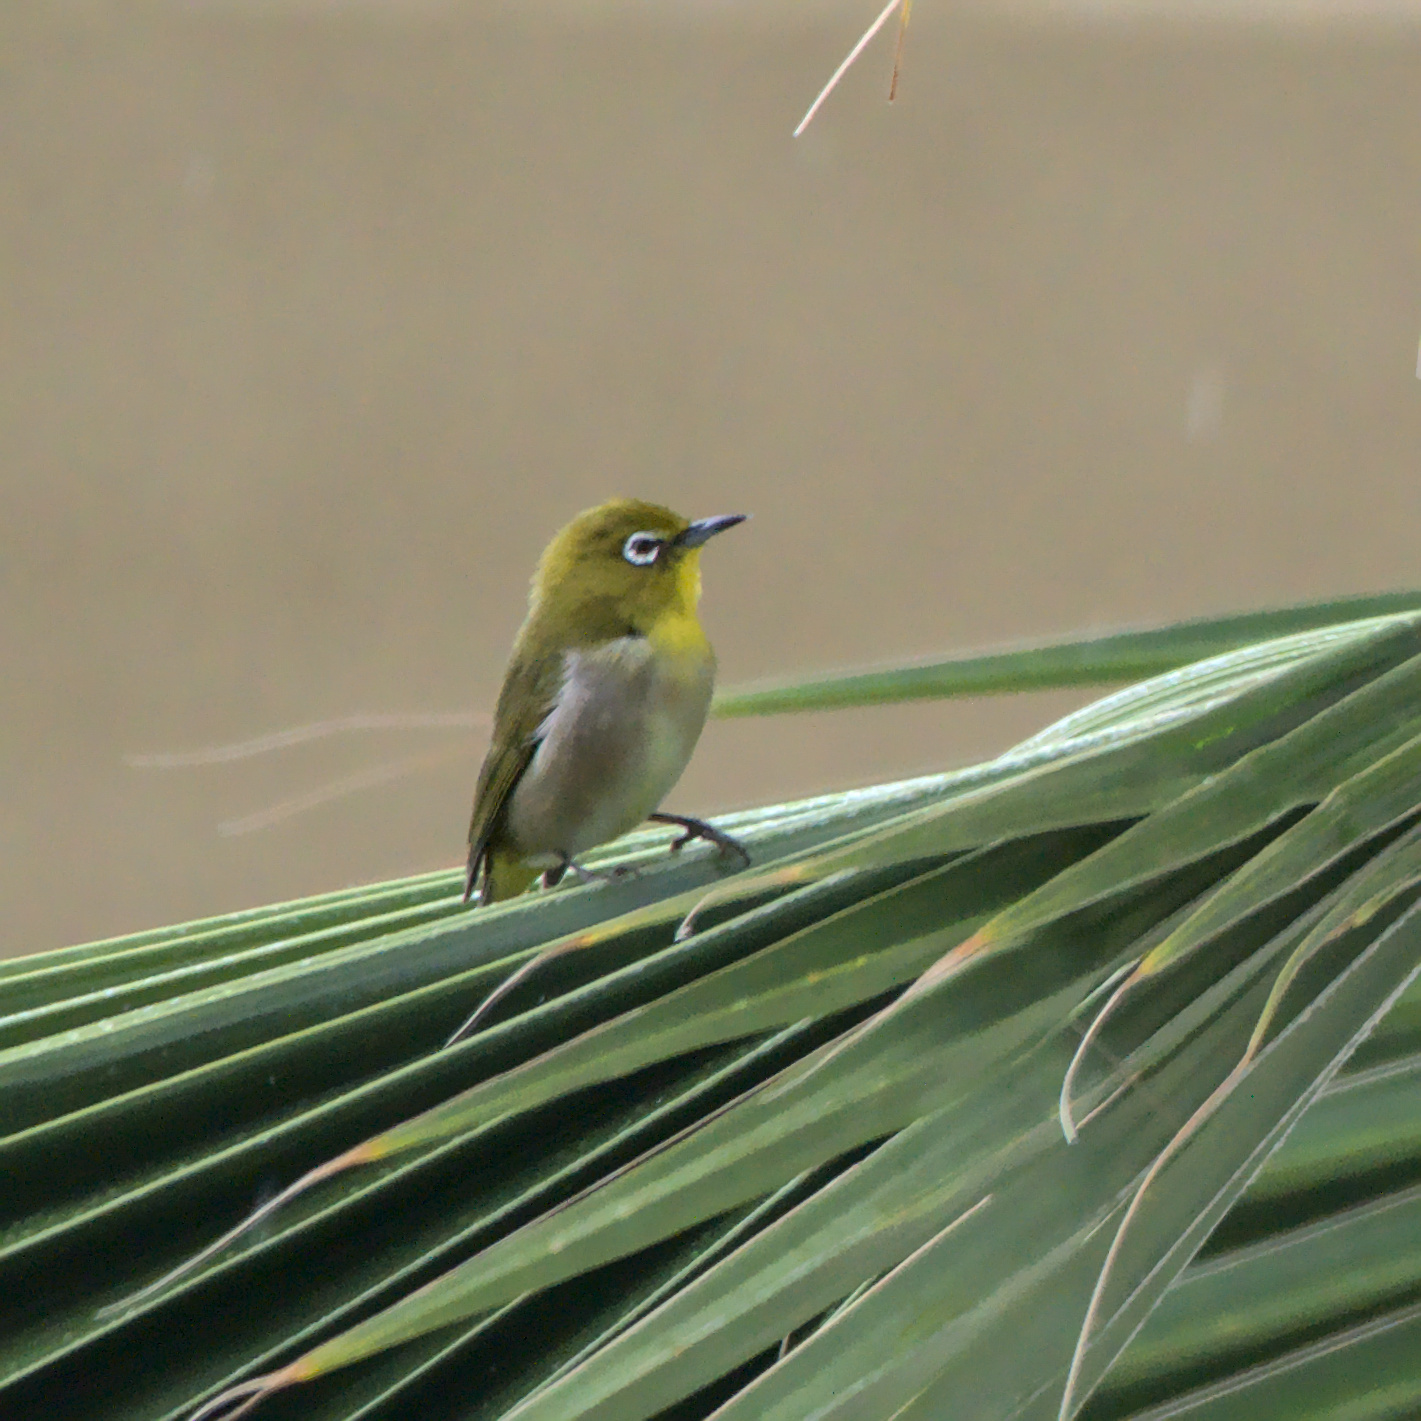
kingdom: Animalia
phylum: Chordata
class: Aves
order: Passeriformes
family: Zosteropidae
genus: Zosterops
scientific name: Zosterops japonicus
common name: Japanese white-eye
